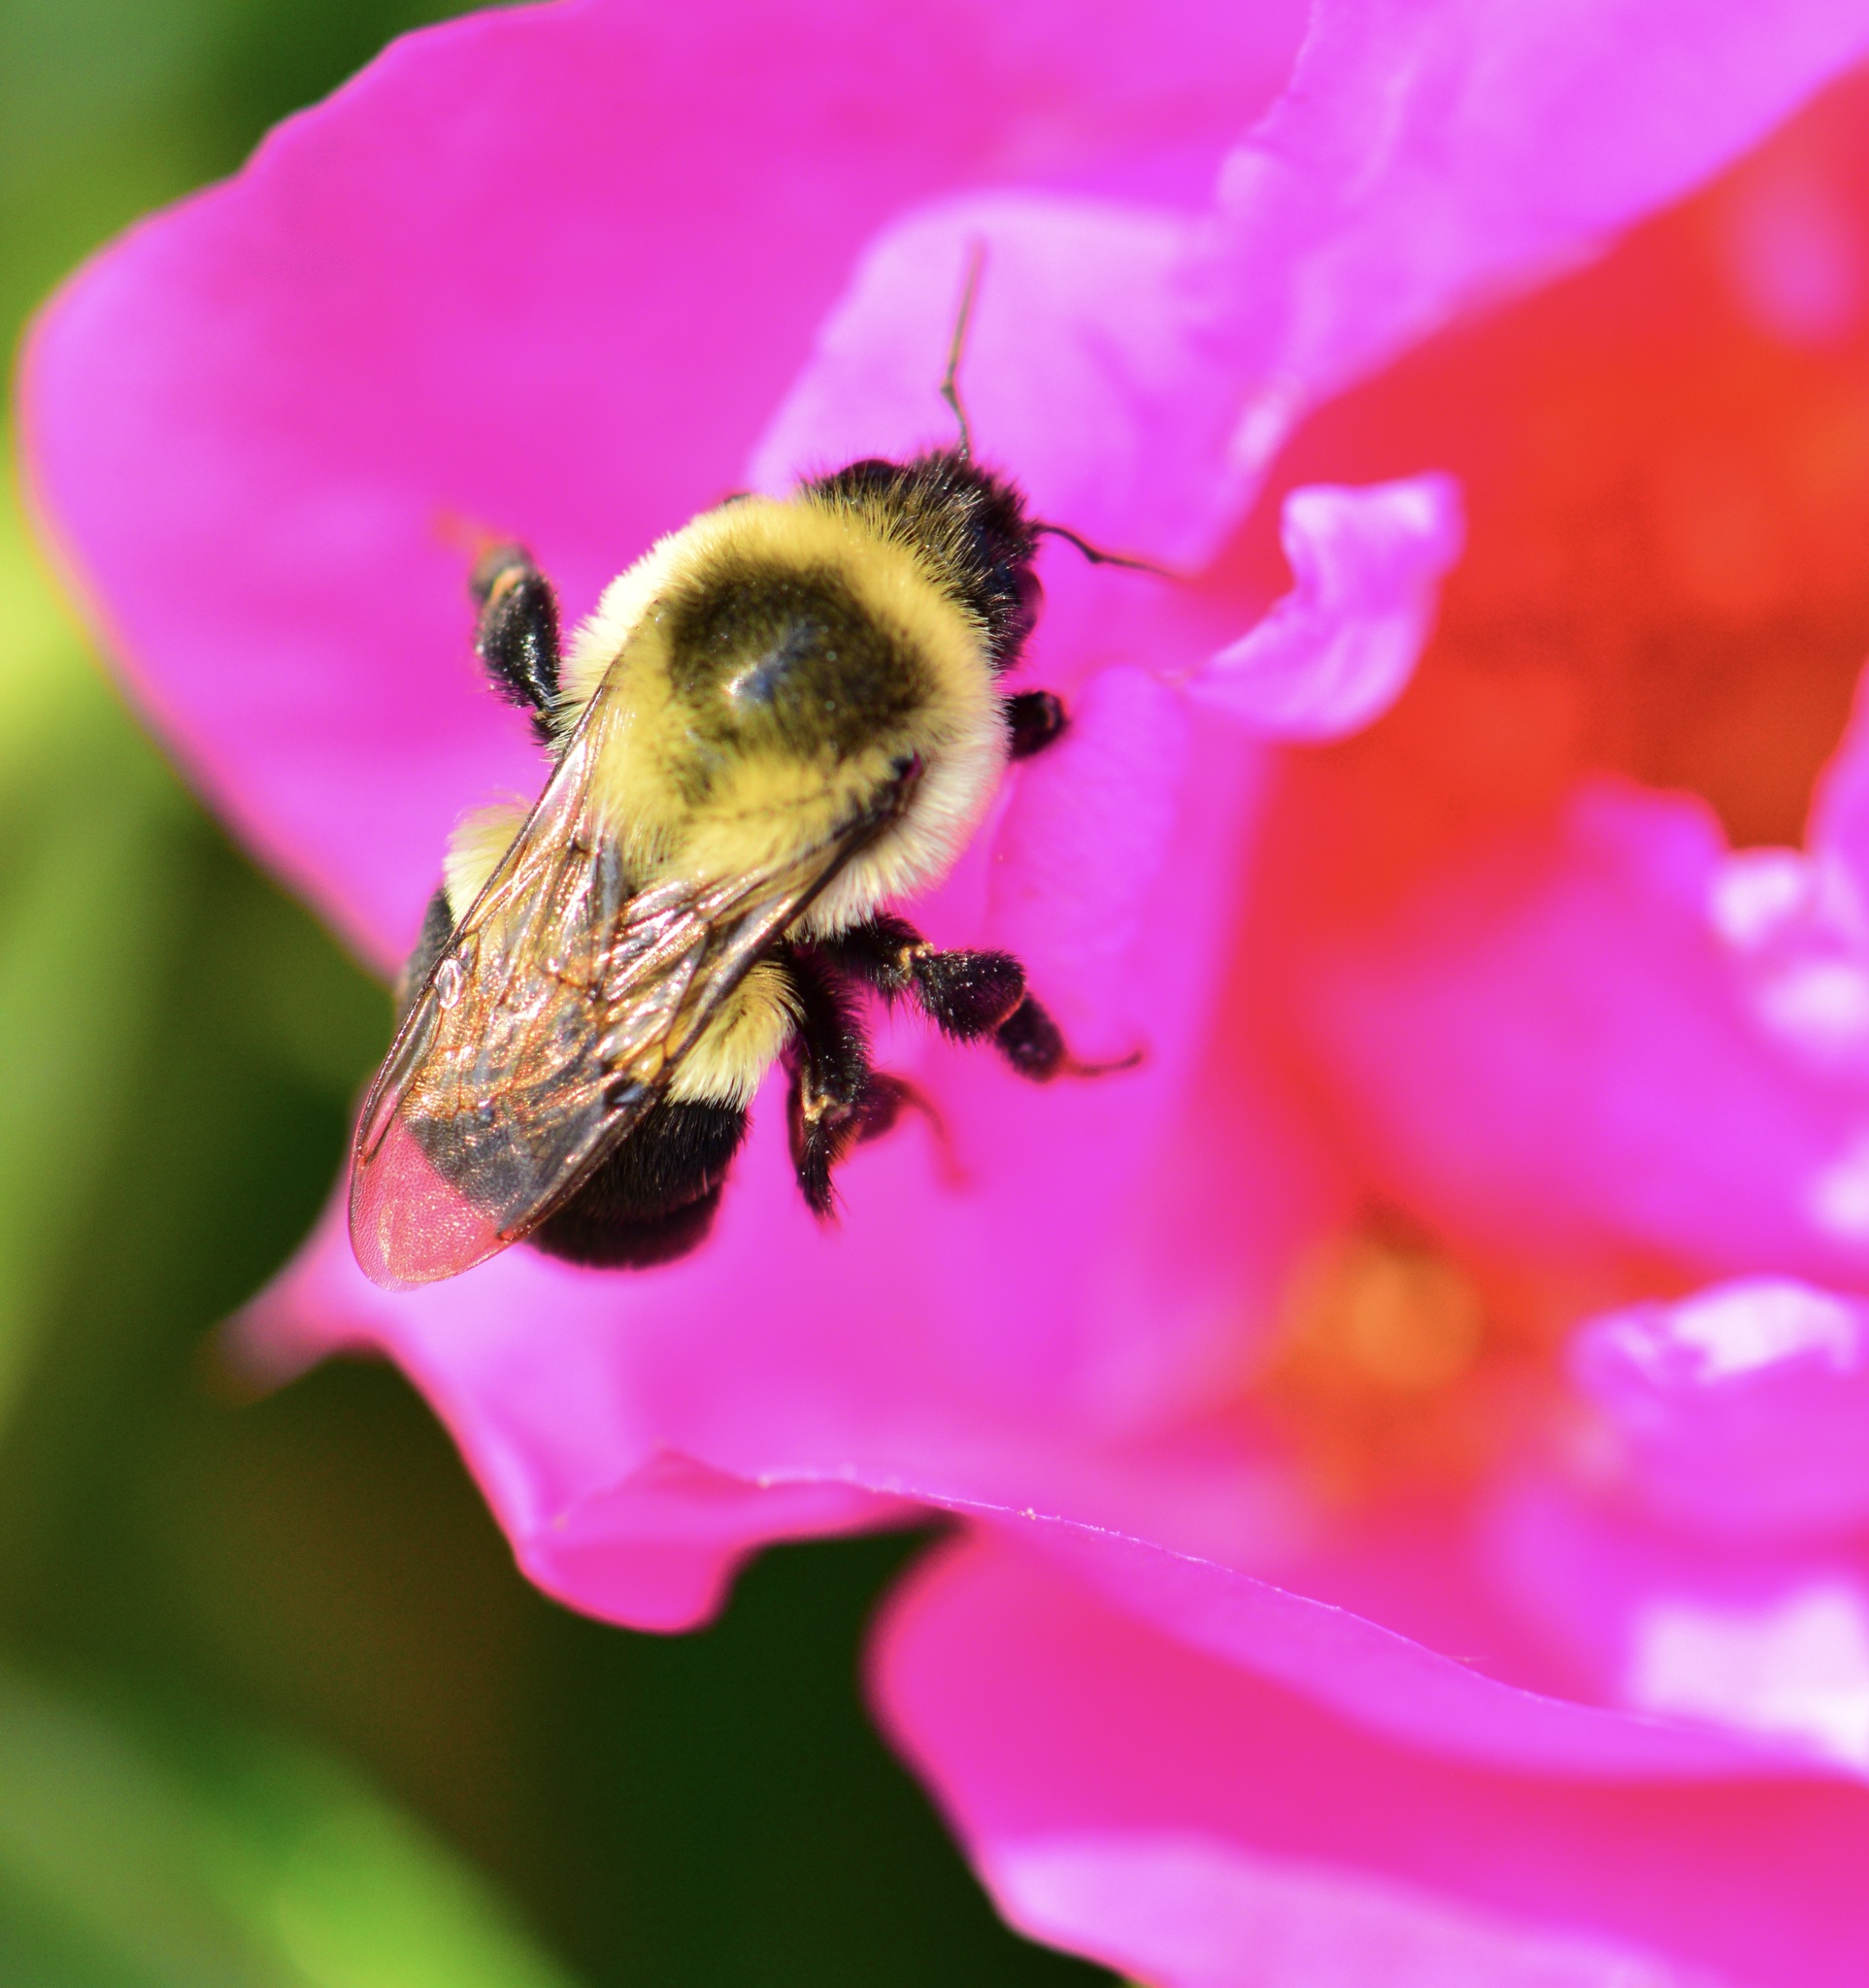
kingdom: Animalia
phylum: Arthropoda
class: Insecta
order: Hymenoptera
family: Apidae
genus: Bombus
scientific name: Bombus impatiens
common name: Common eastern bumble bee
